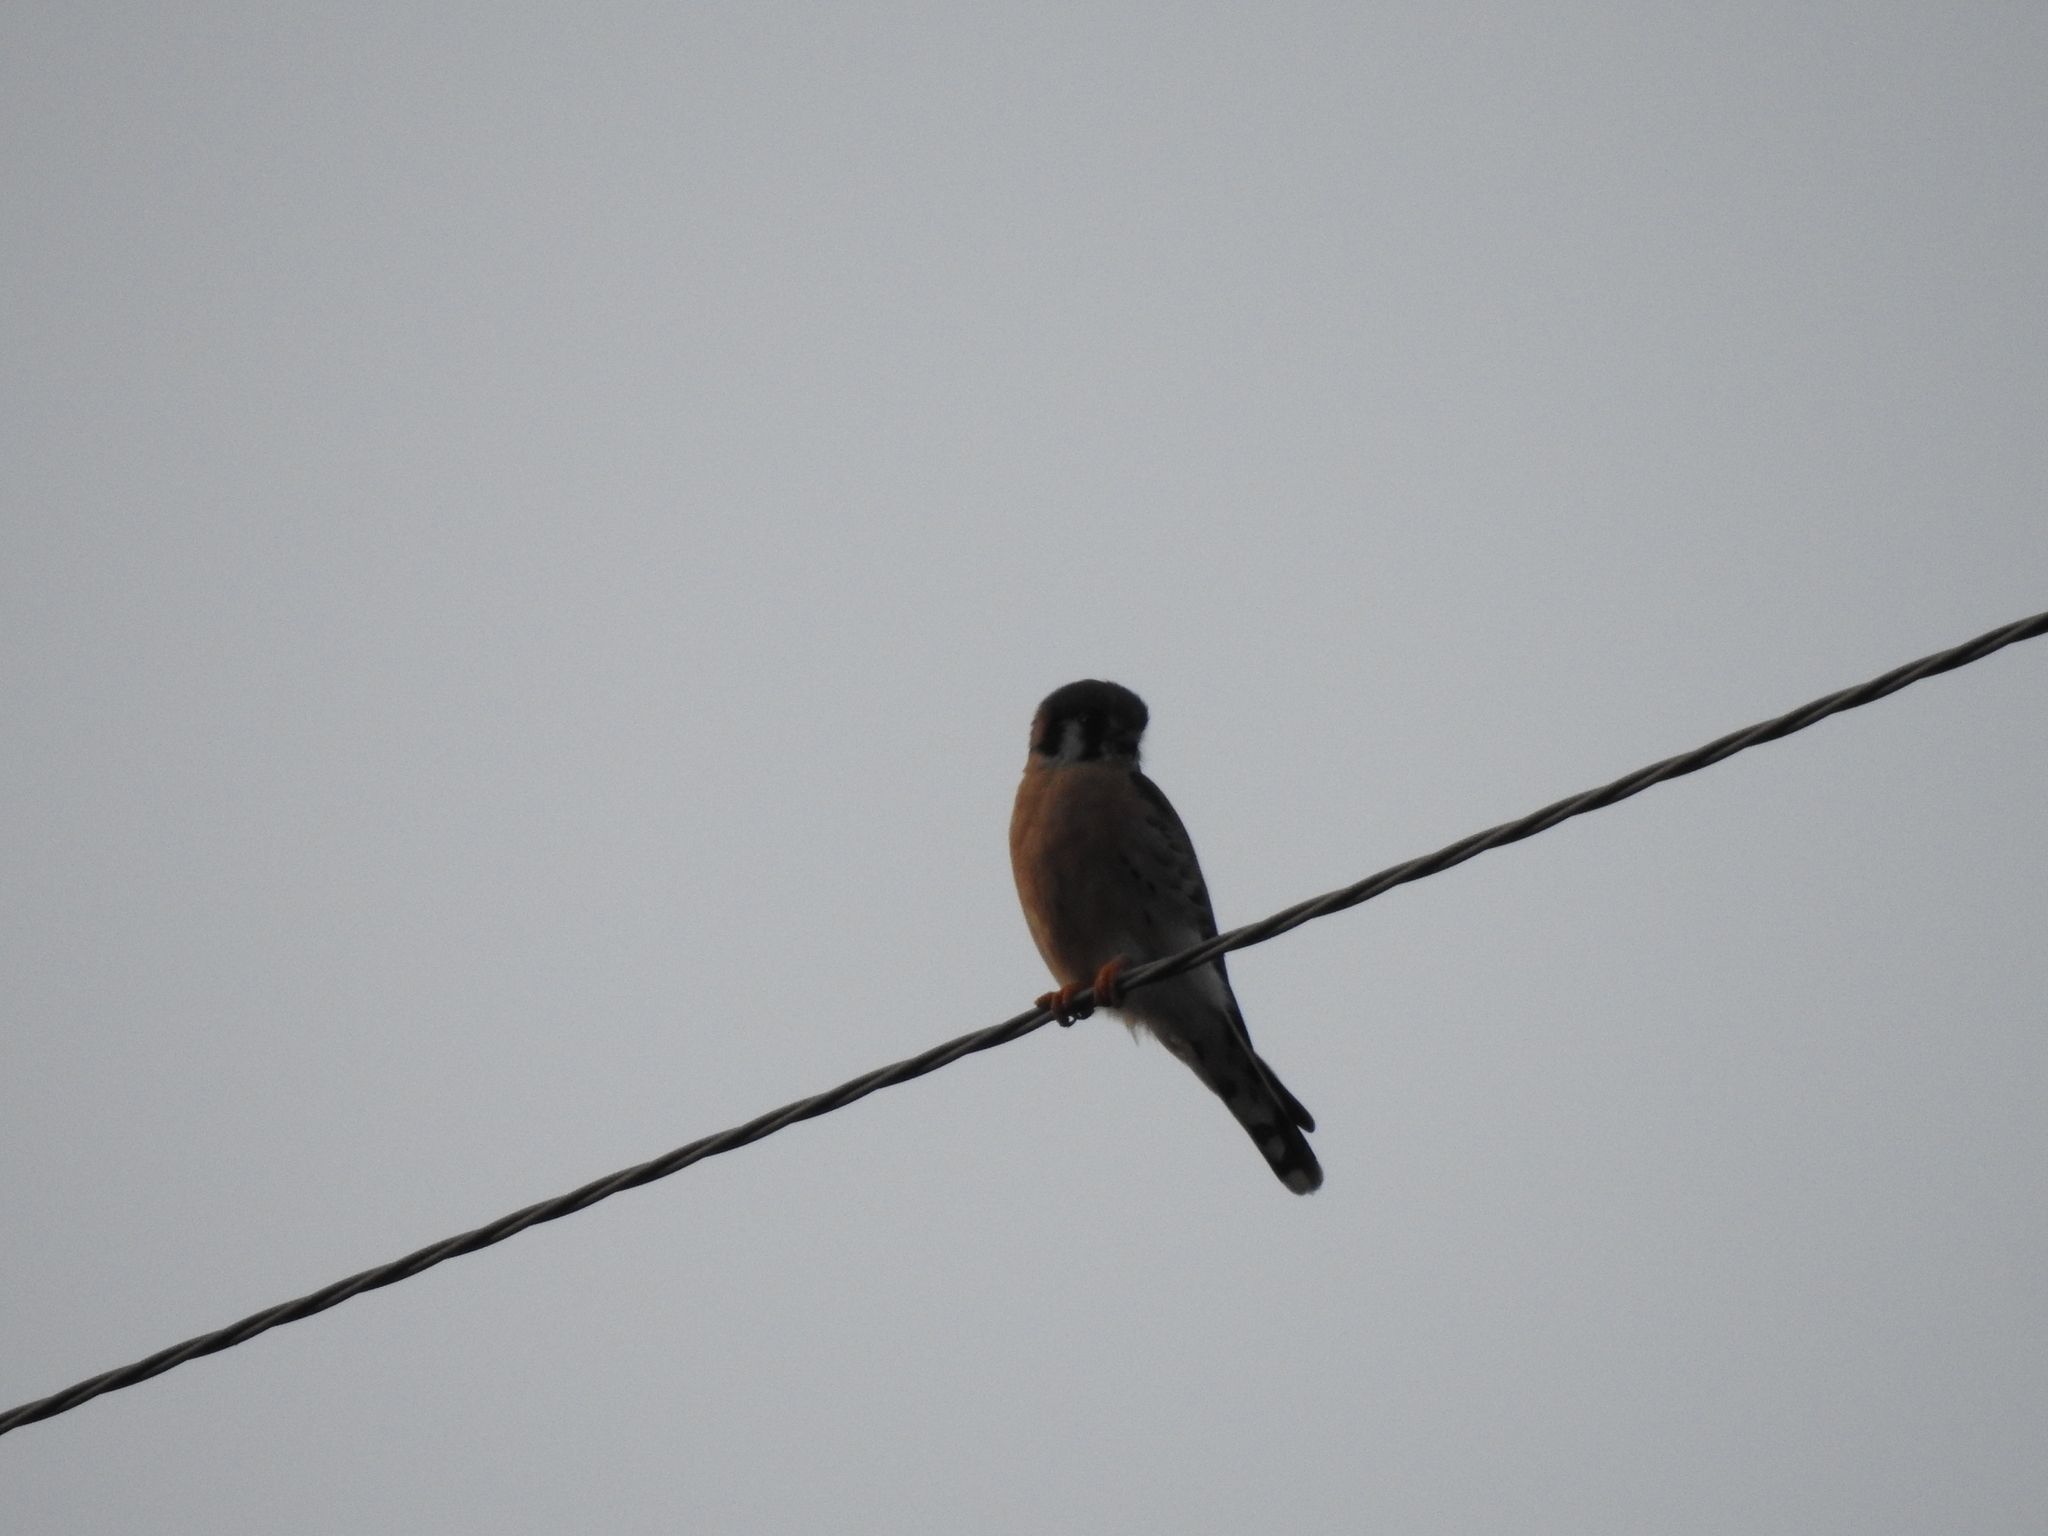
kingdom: Animalia
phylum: Chordata
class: Aves
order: Falconiformes
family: Falconidae
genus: Falco
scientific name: Falco sparverius
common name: American kestrel
